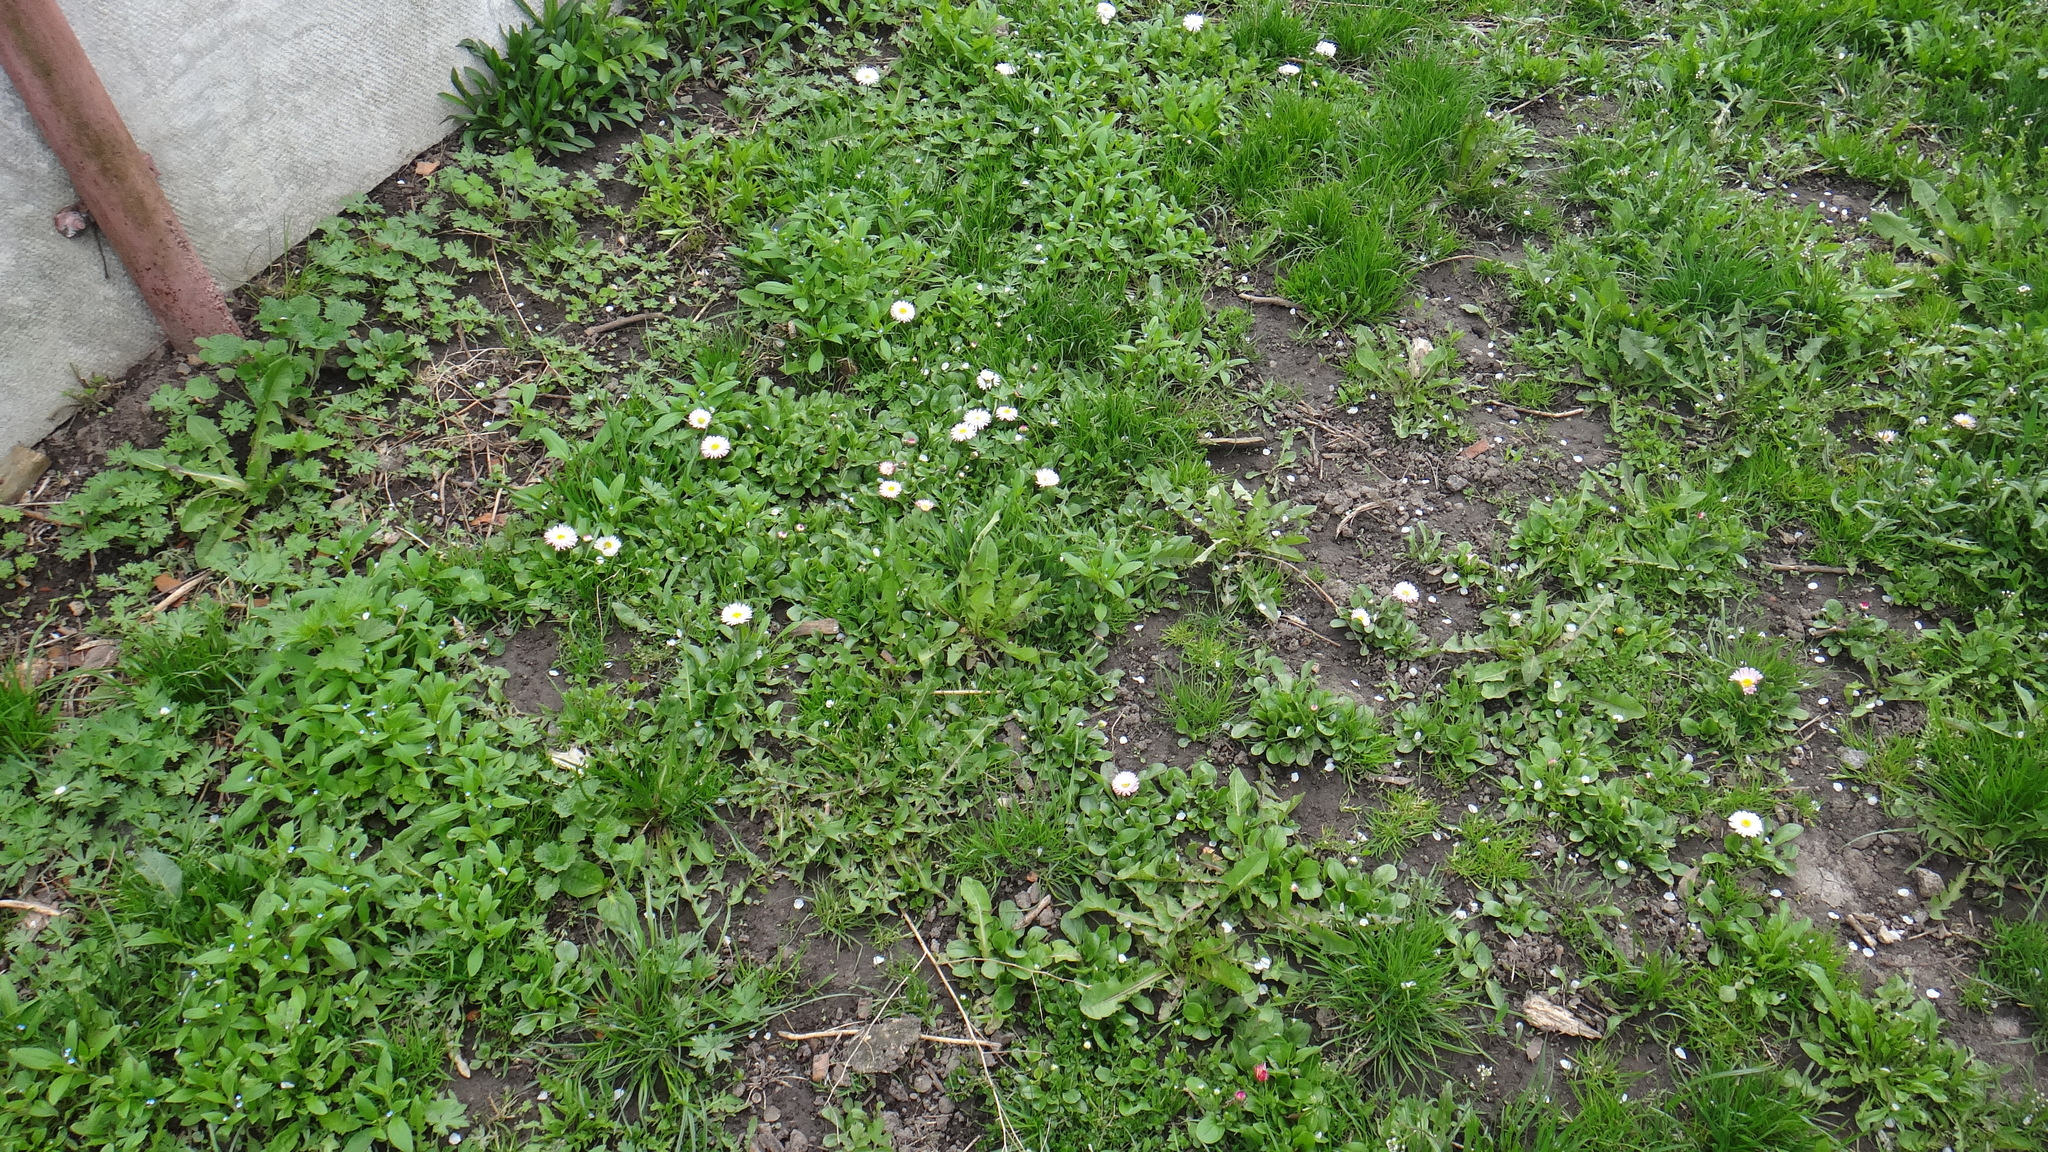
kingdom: Plantae
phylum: Tracheophyta
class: Magnoliopsida
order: Asterales
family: Asteraceae
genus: Bellis
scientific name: Bellis perennis
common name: Lawndaisy
